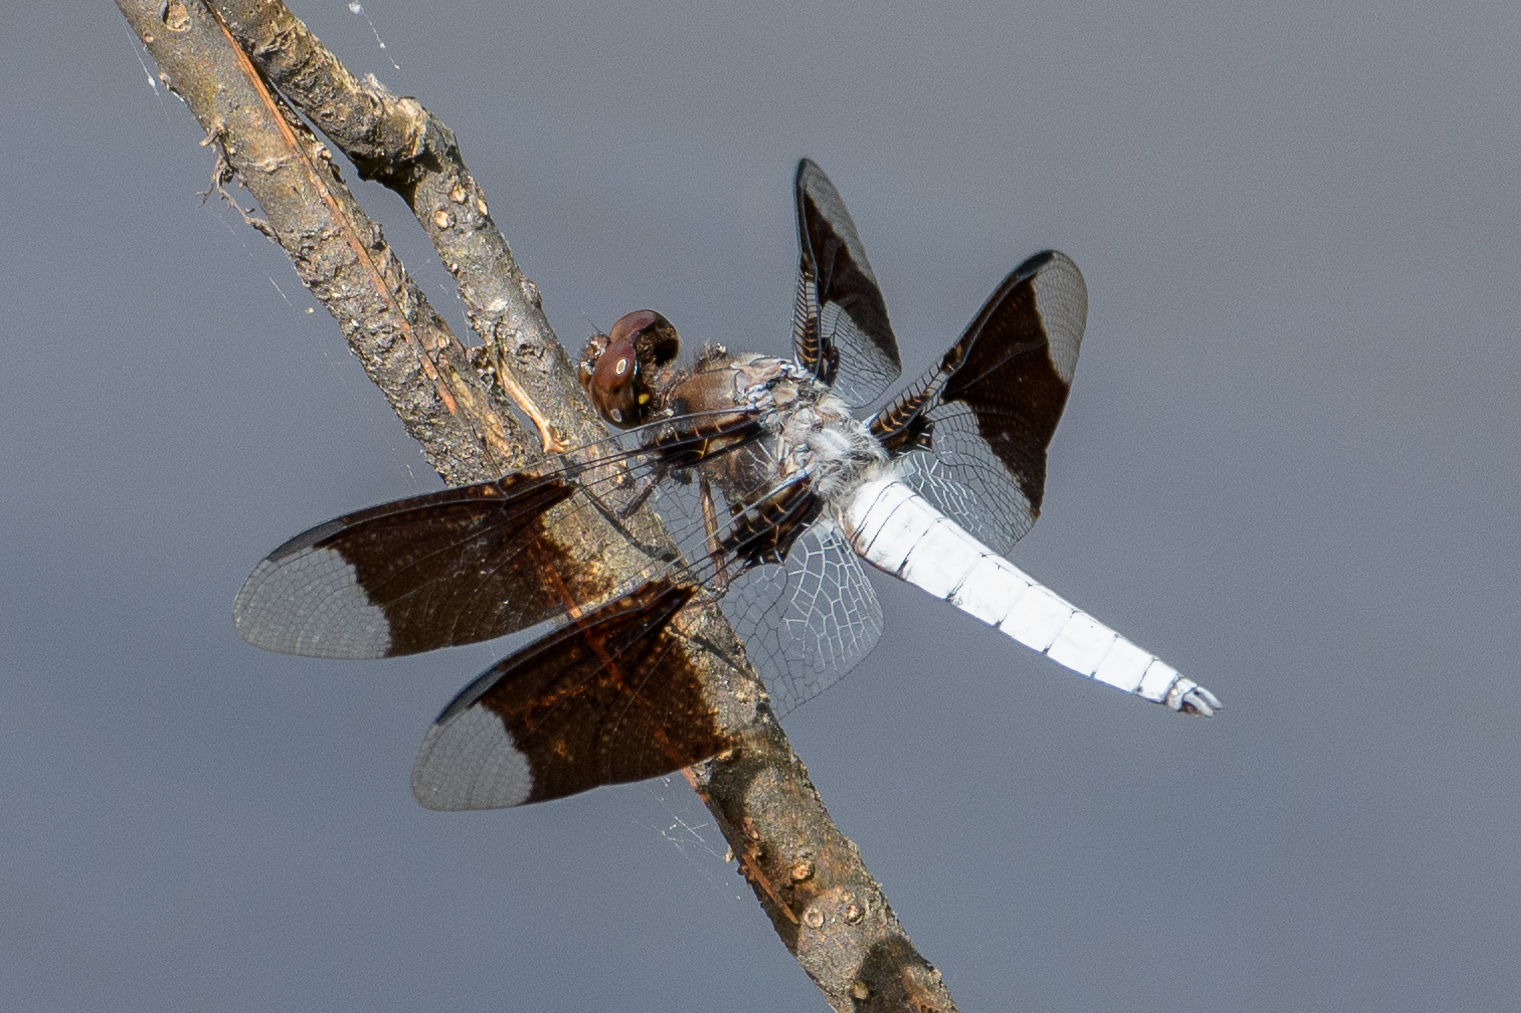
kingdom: Animalia
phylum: Arthropoda
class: Insecta
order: Odonata
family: Libellulidae
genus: Plathemis
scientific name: Plathemis lydia
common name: Common whitetail
